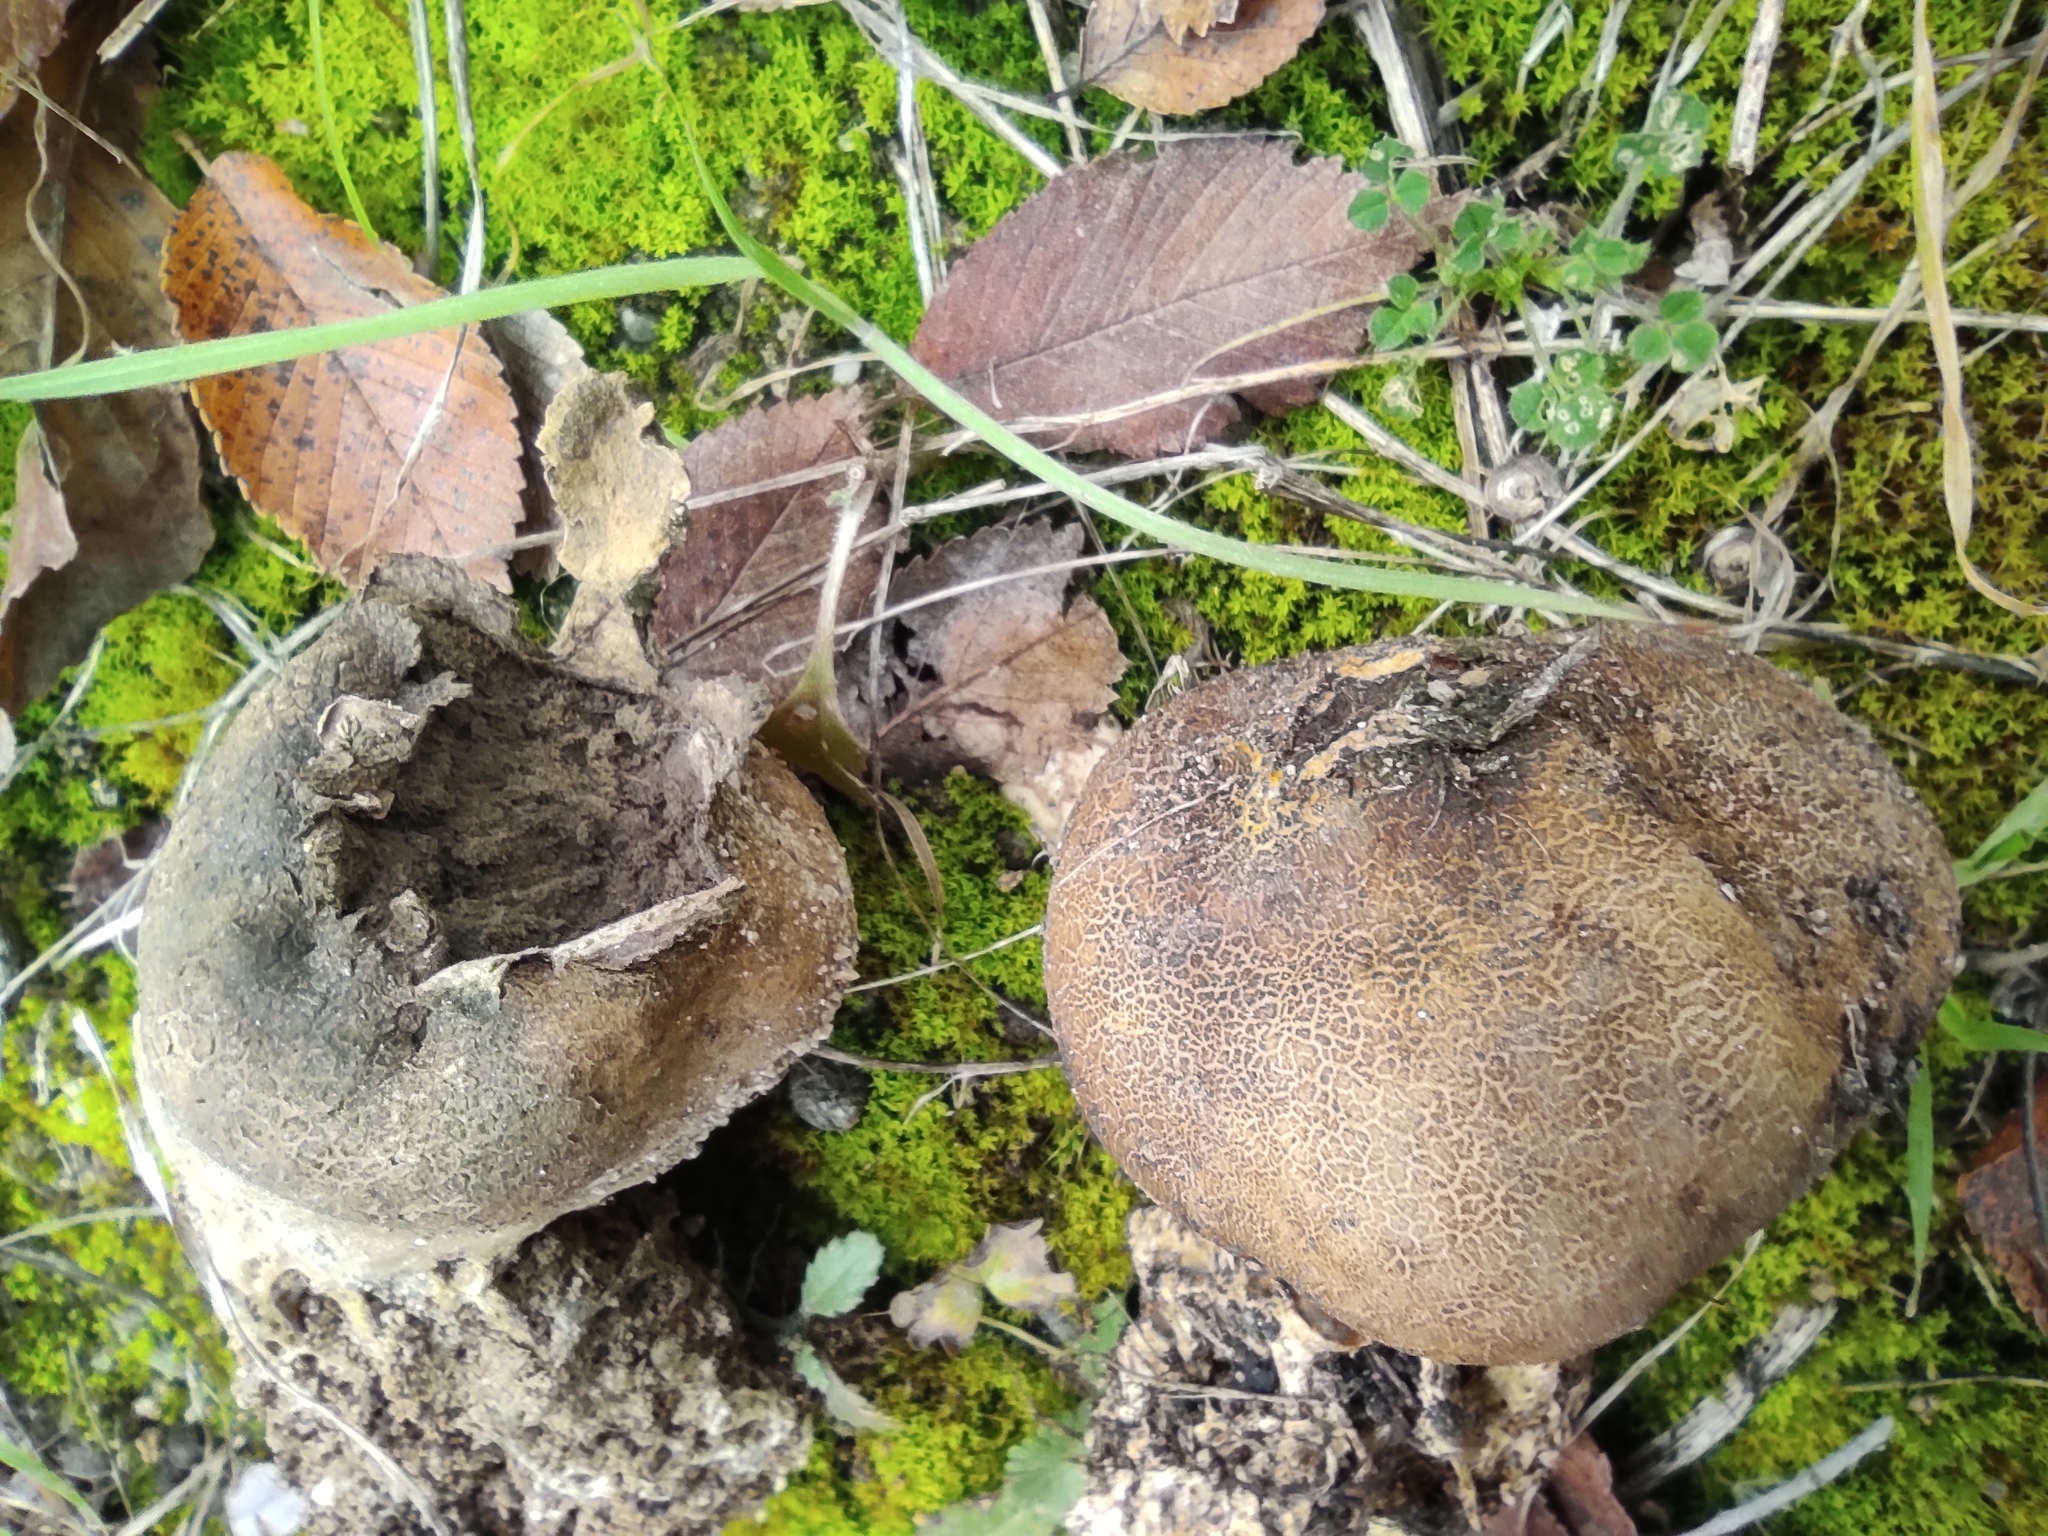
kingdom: Fungi
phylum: Basidiomycota
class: Agaricomycetes
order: Boletales
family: Sclerodermataceae
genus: Scleroderma
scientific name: Scleroderma verrucosum
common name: Scaly earthball
